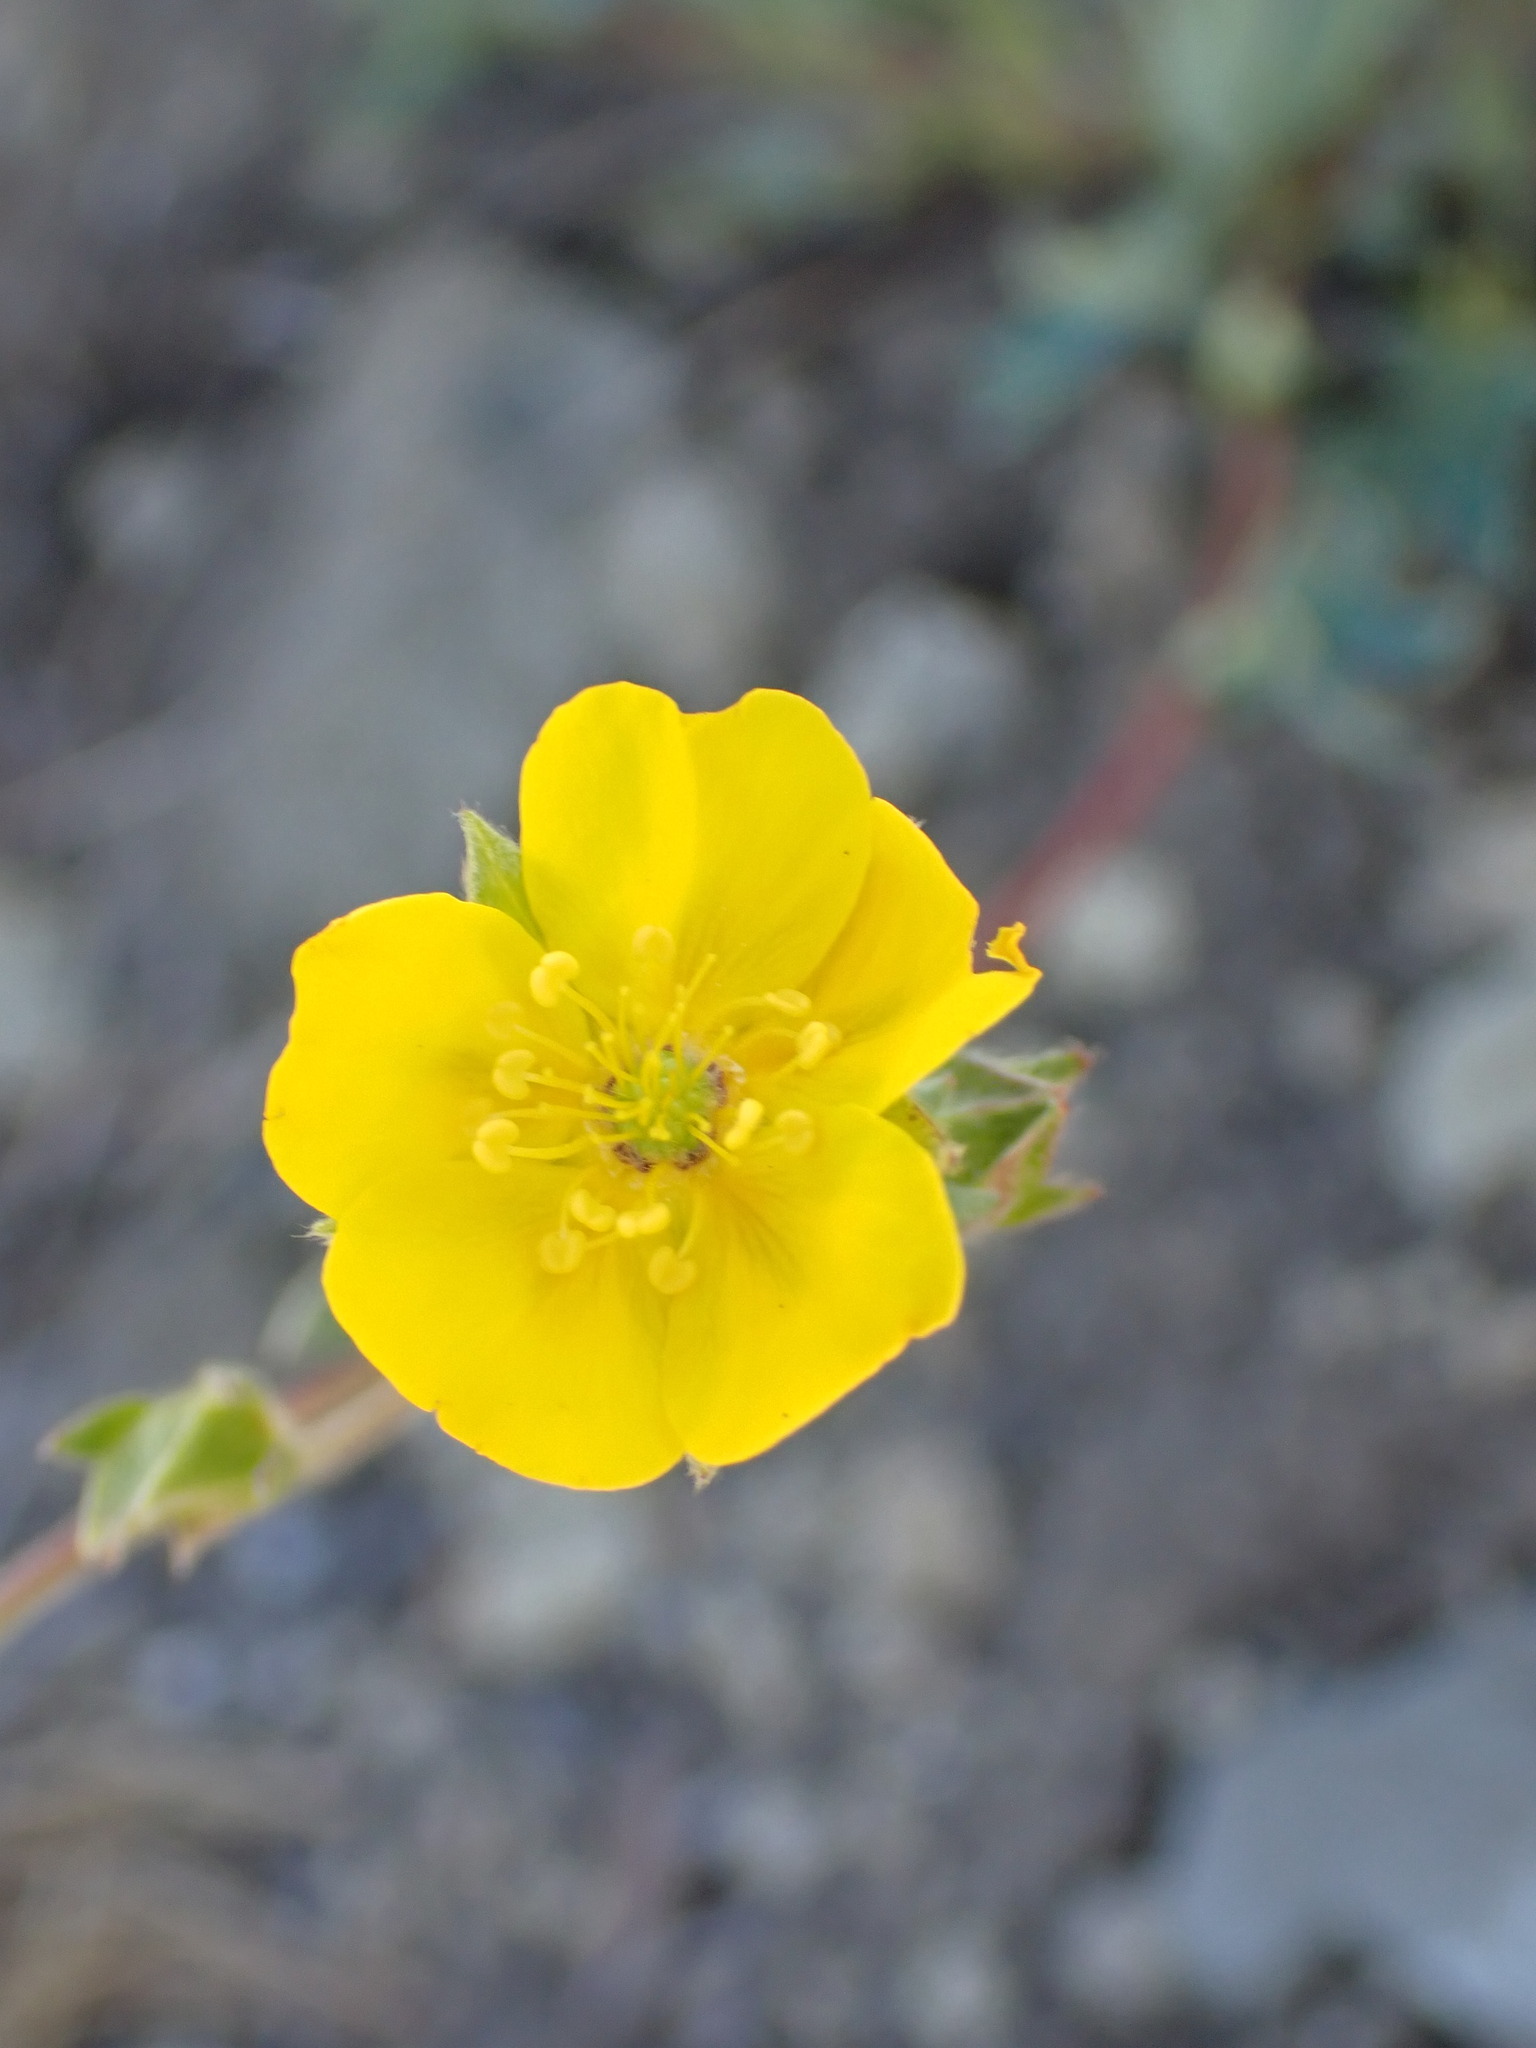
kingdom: Plantae
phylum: Tracheophyta
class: Magnoliopsida
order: Rosales
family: Rosaceae
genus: Potentilla
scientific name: Potentilla glaucophylla
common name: Blue-leaved cinquefoil
